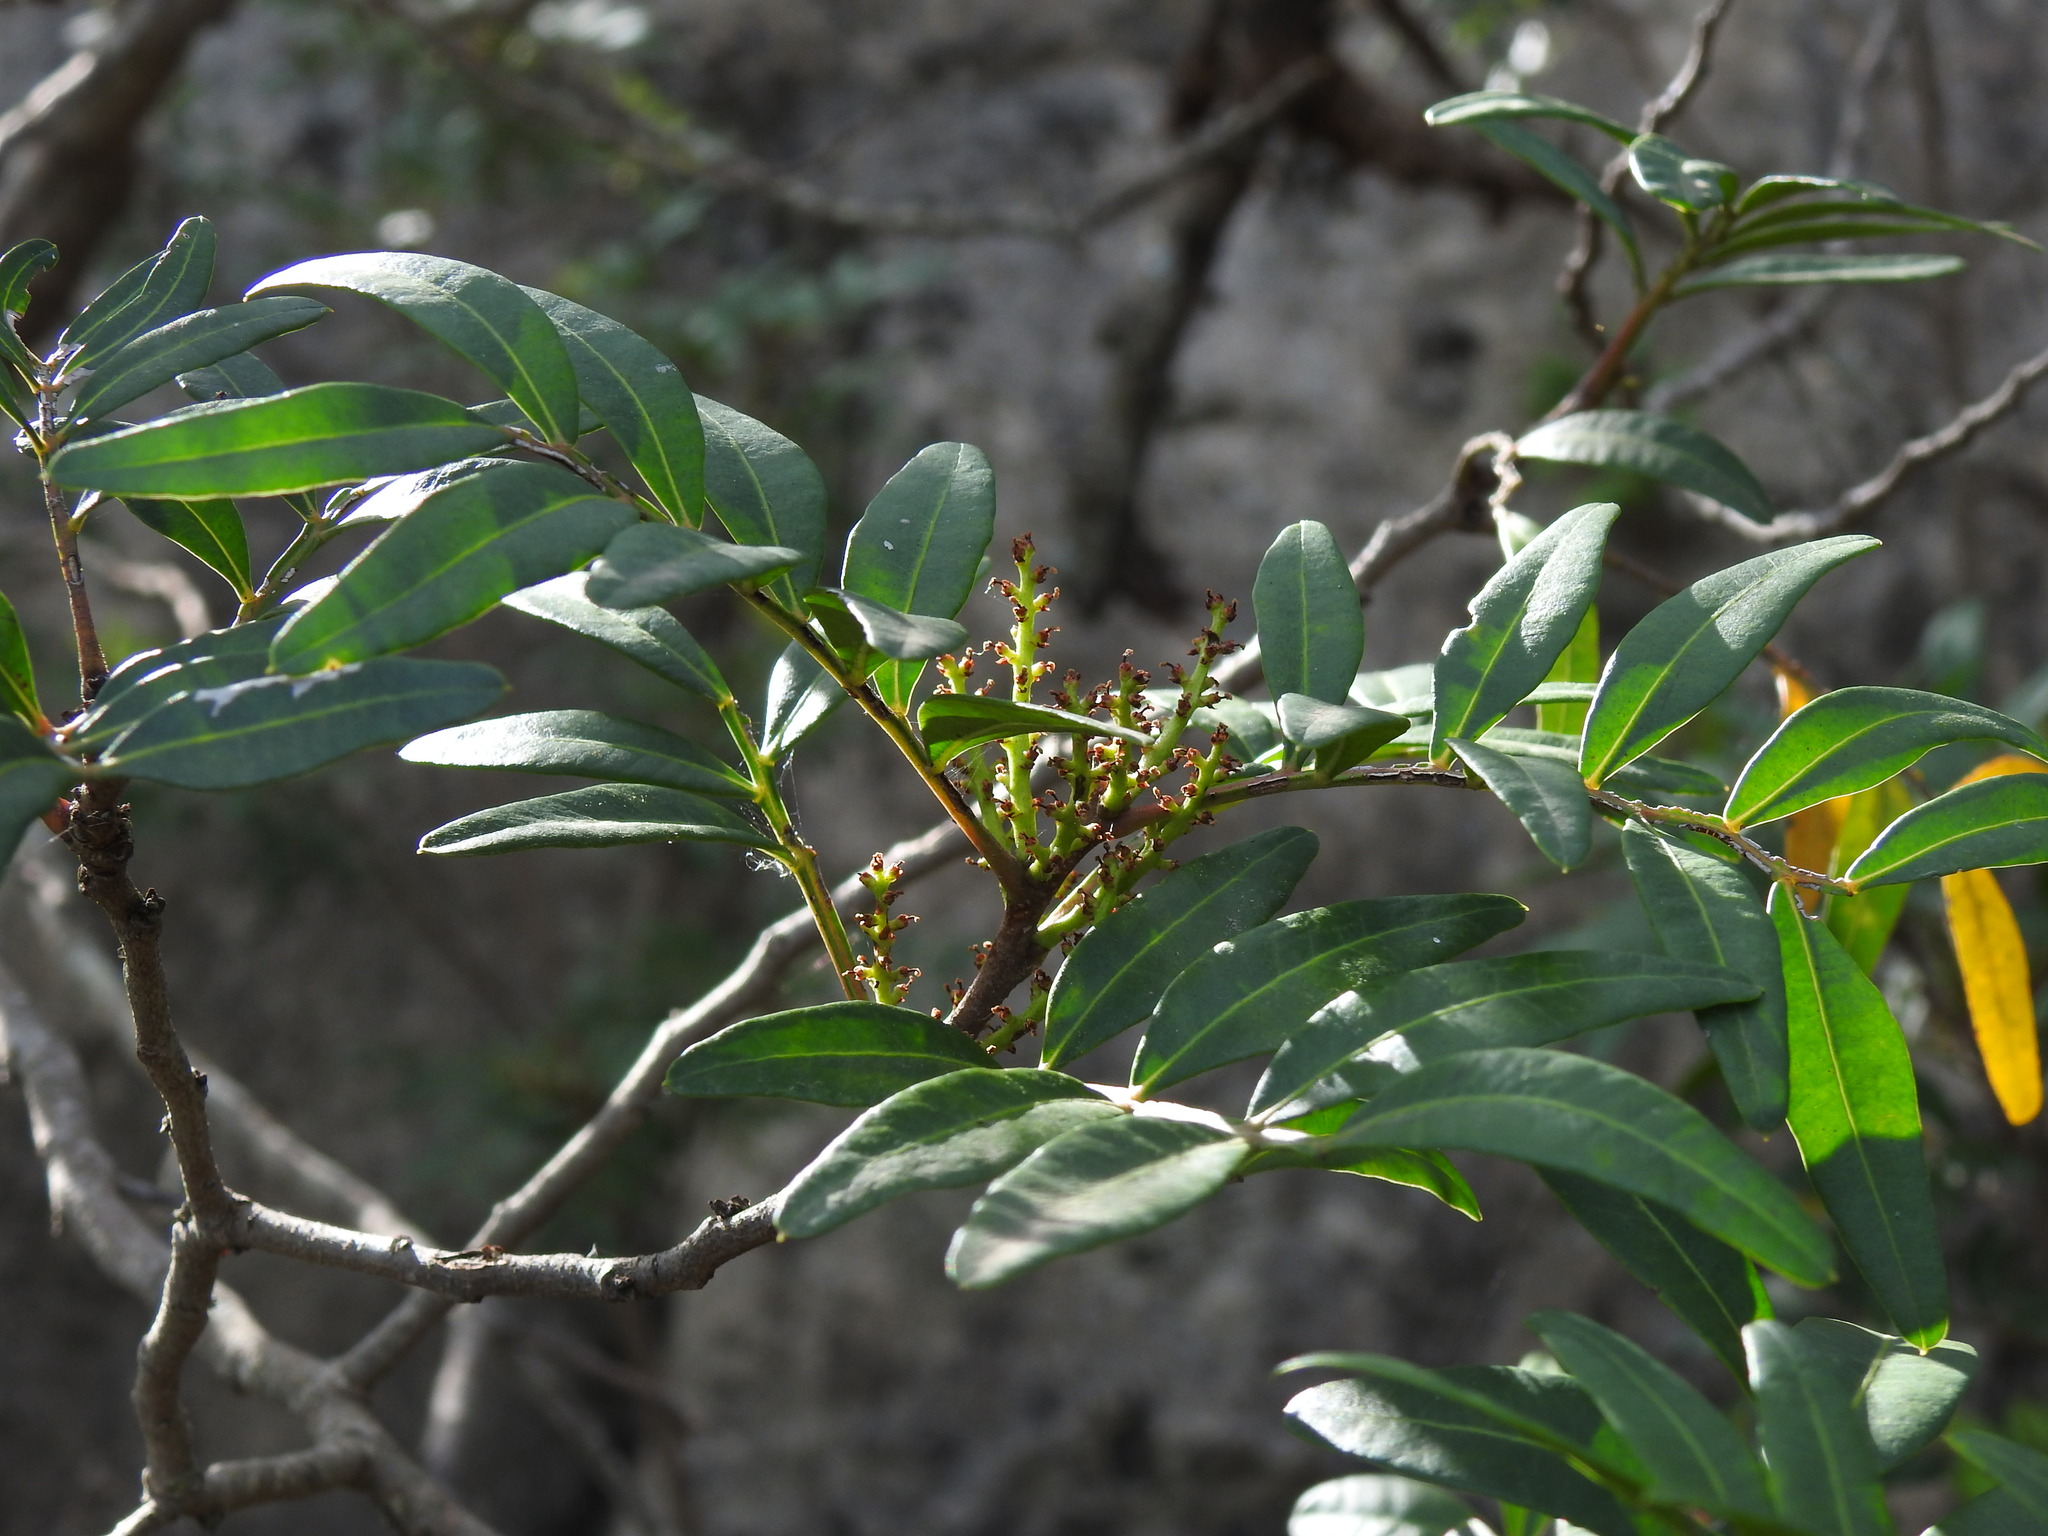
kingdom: Plantae
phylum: Tracheophyta
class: Magnoliopsida
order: Sapindales
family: Anacardiaceae
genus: Pistacia
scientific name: Pistacia lentiscus
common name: Lentisk
